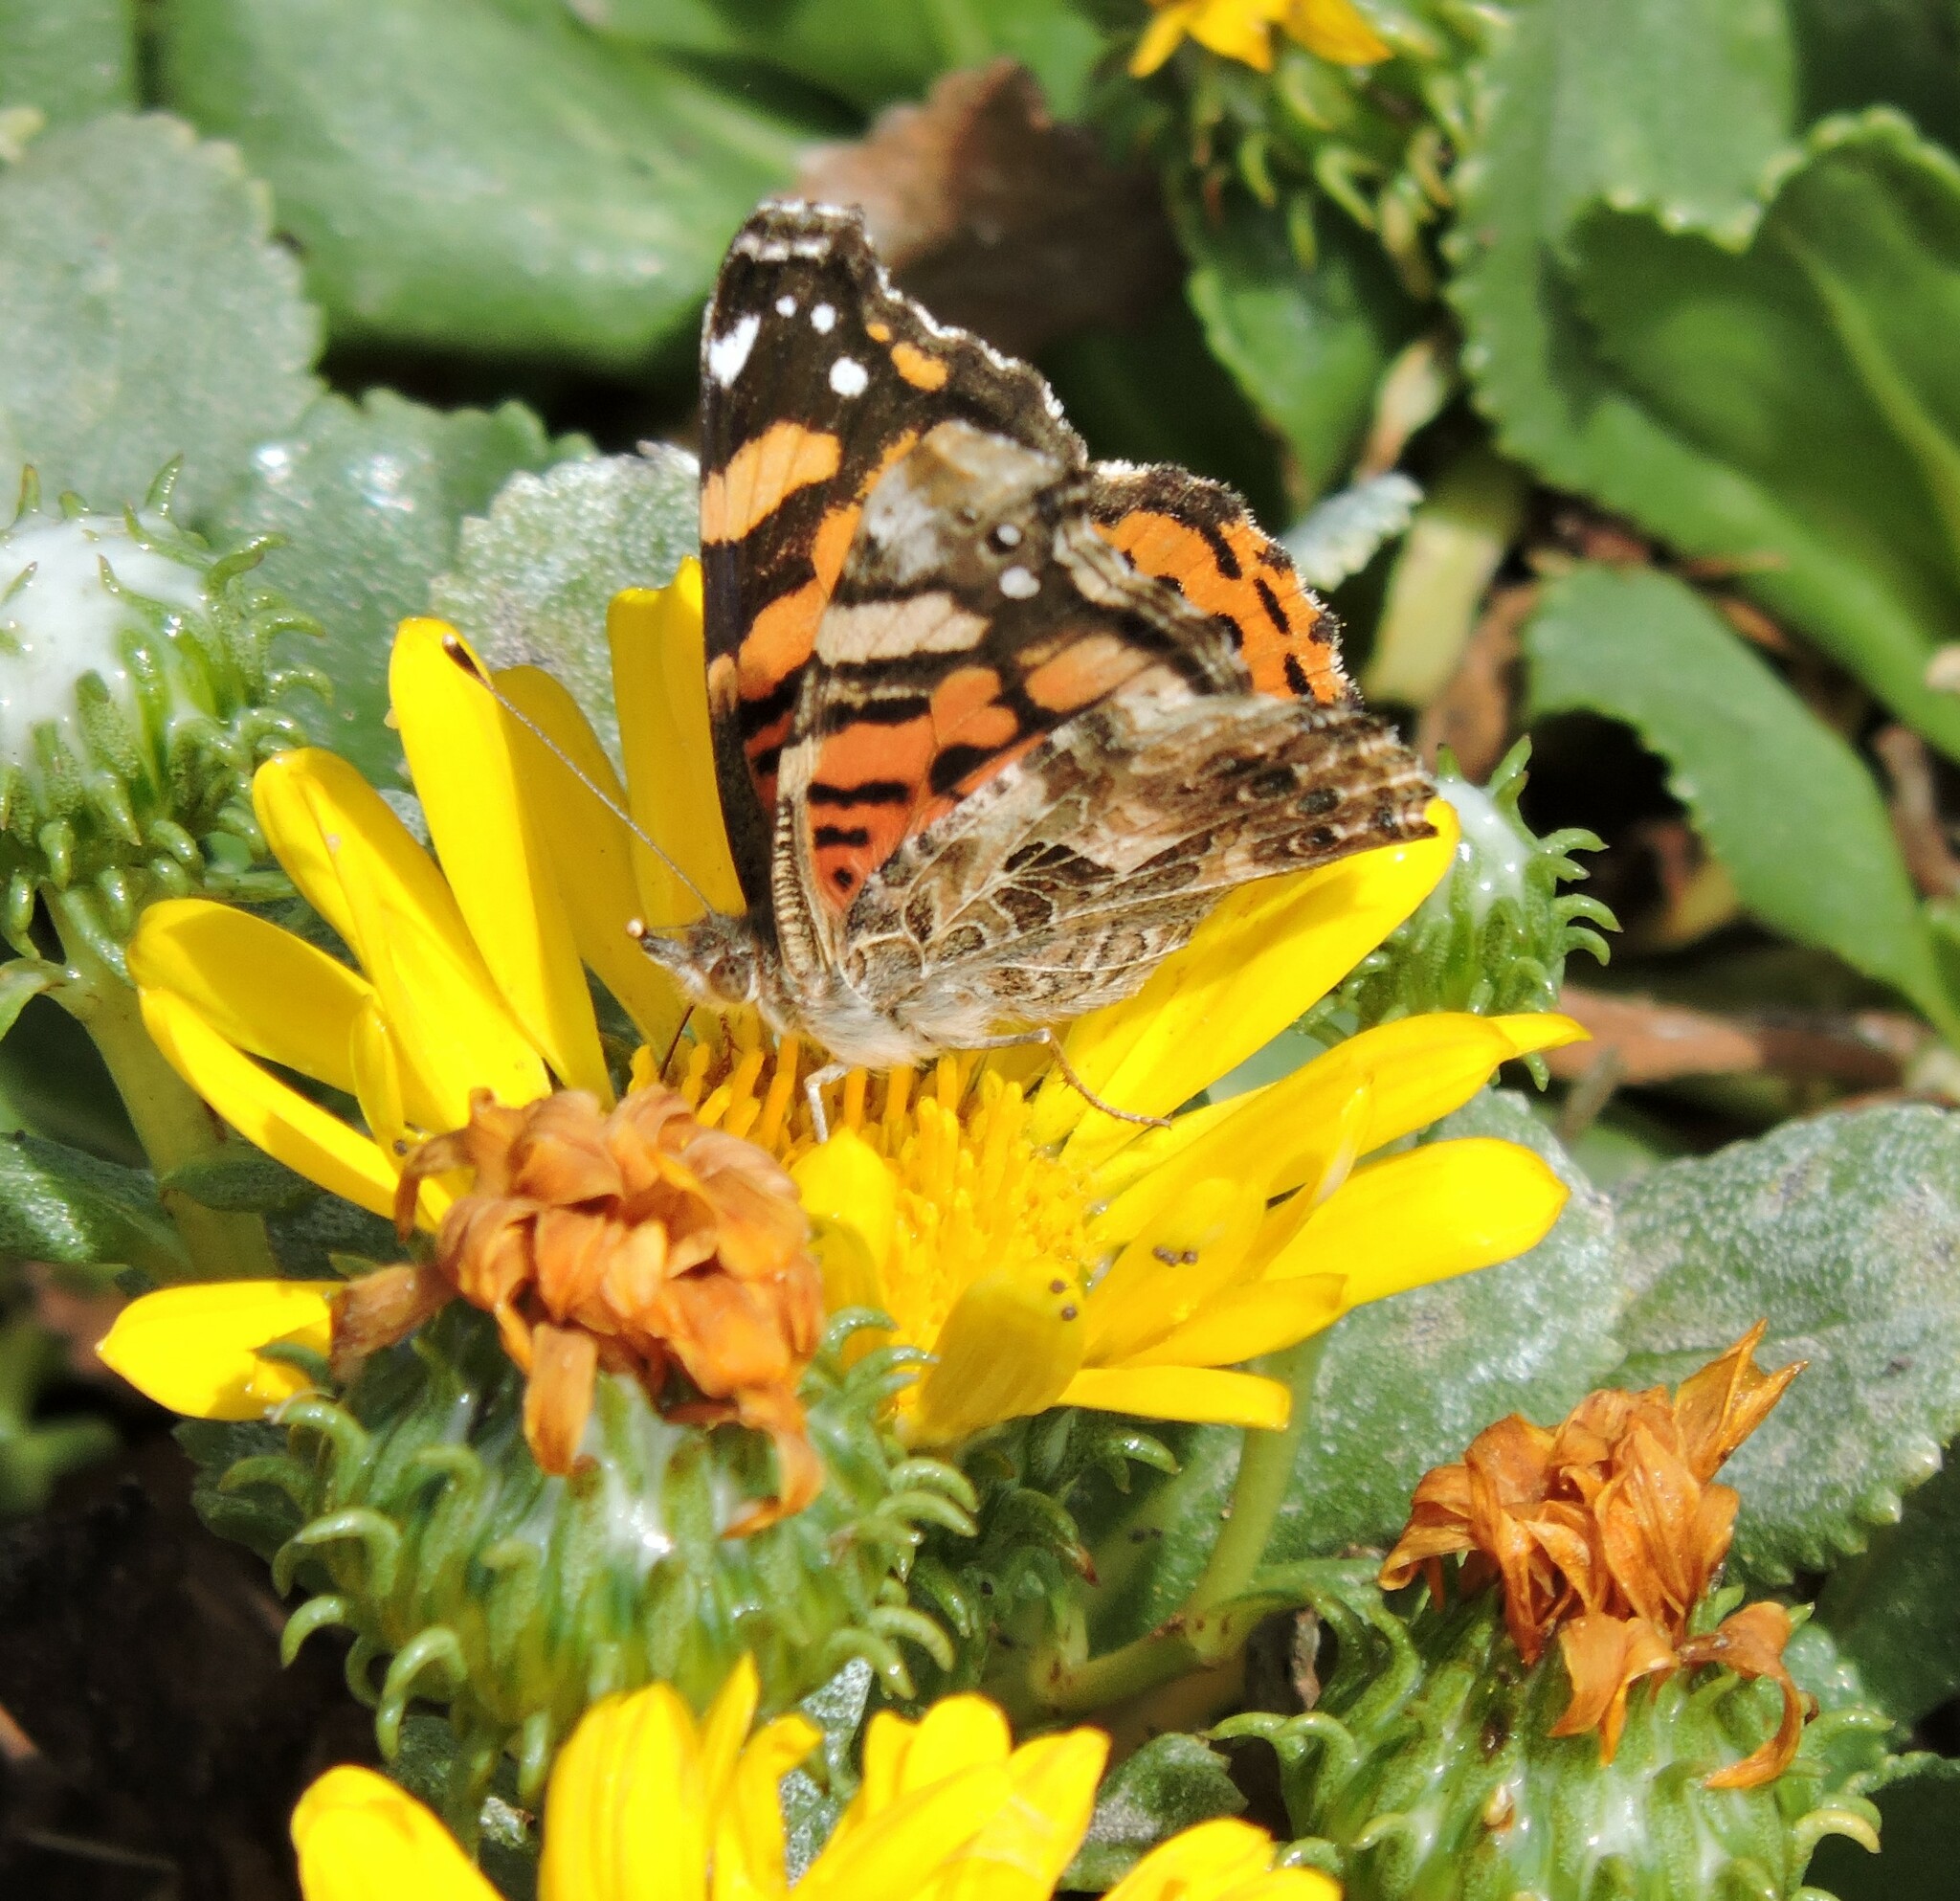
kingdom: Animalia
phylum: Arthropoda
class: Insecta
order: Lepidoptera
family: Nymphalidae
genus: Vanessa
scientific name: Vanessa annabella
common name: West coast lady
